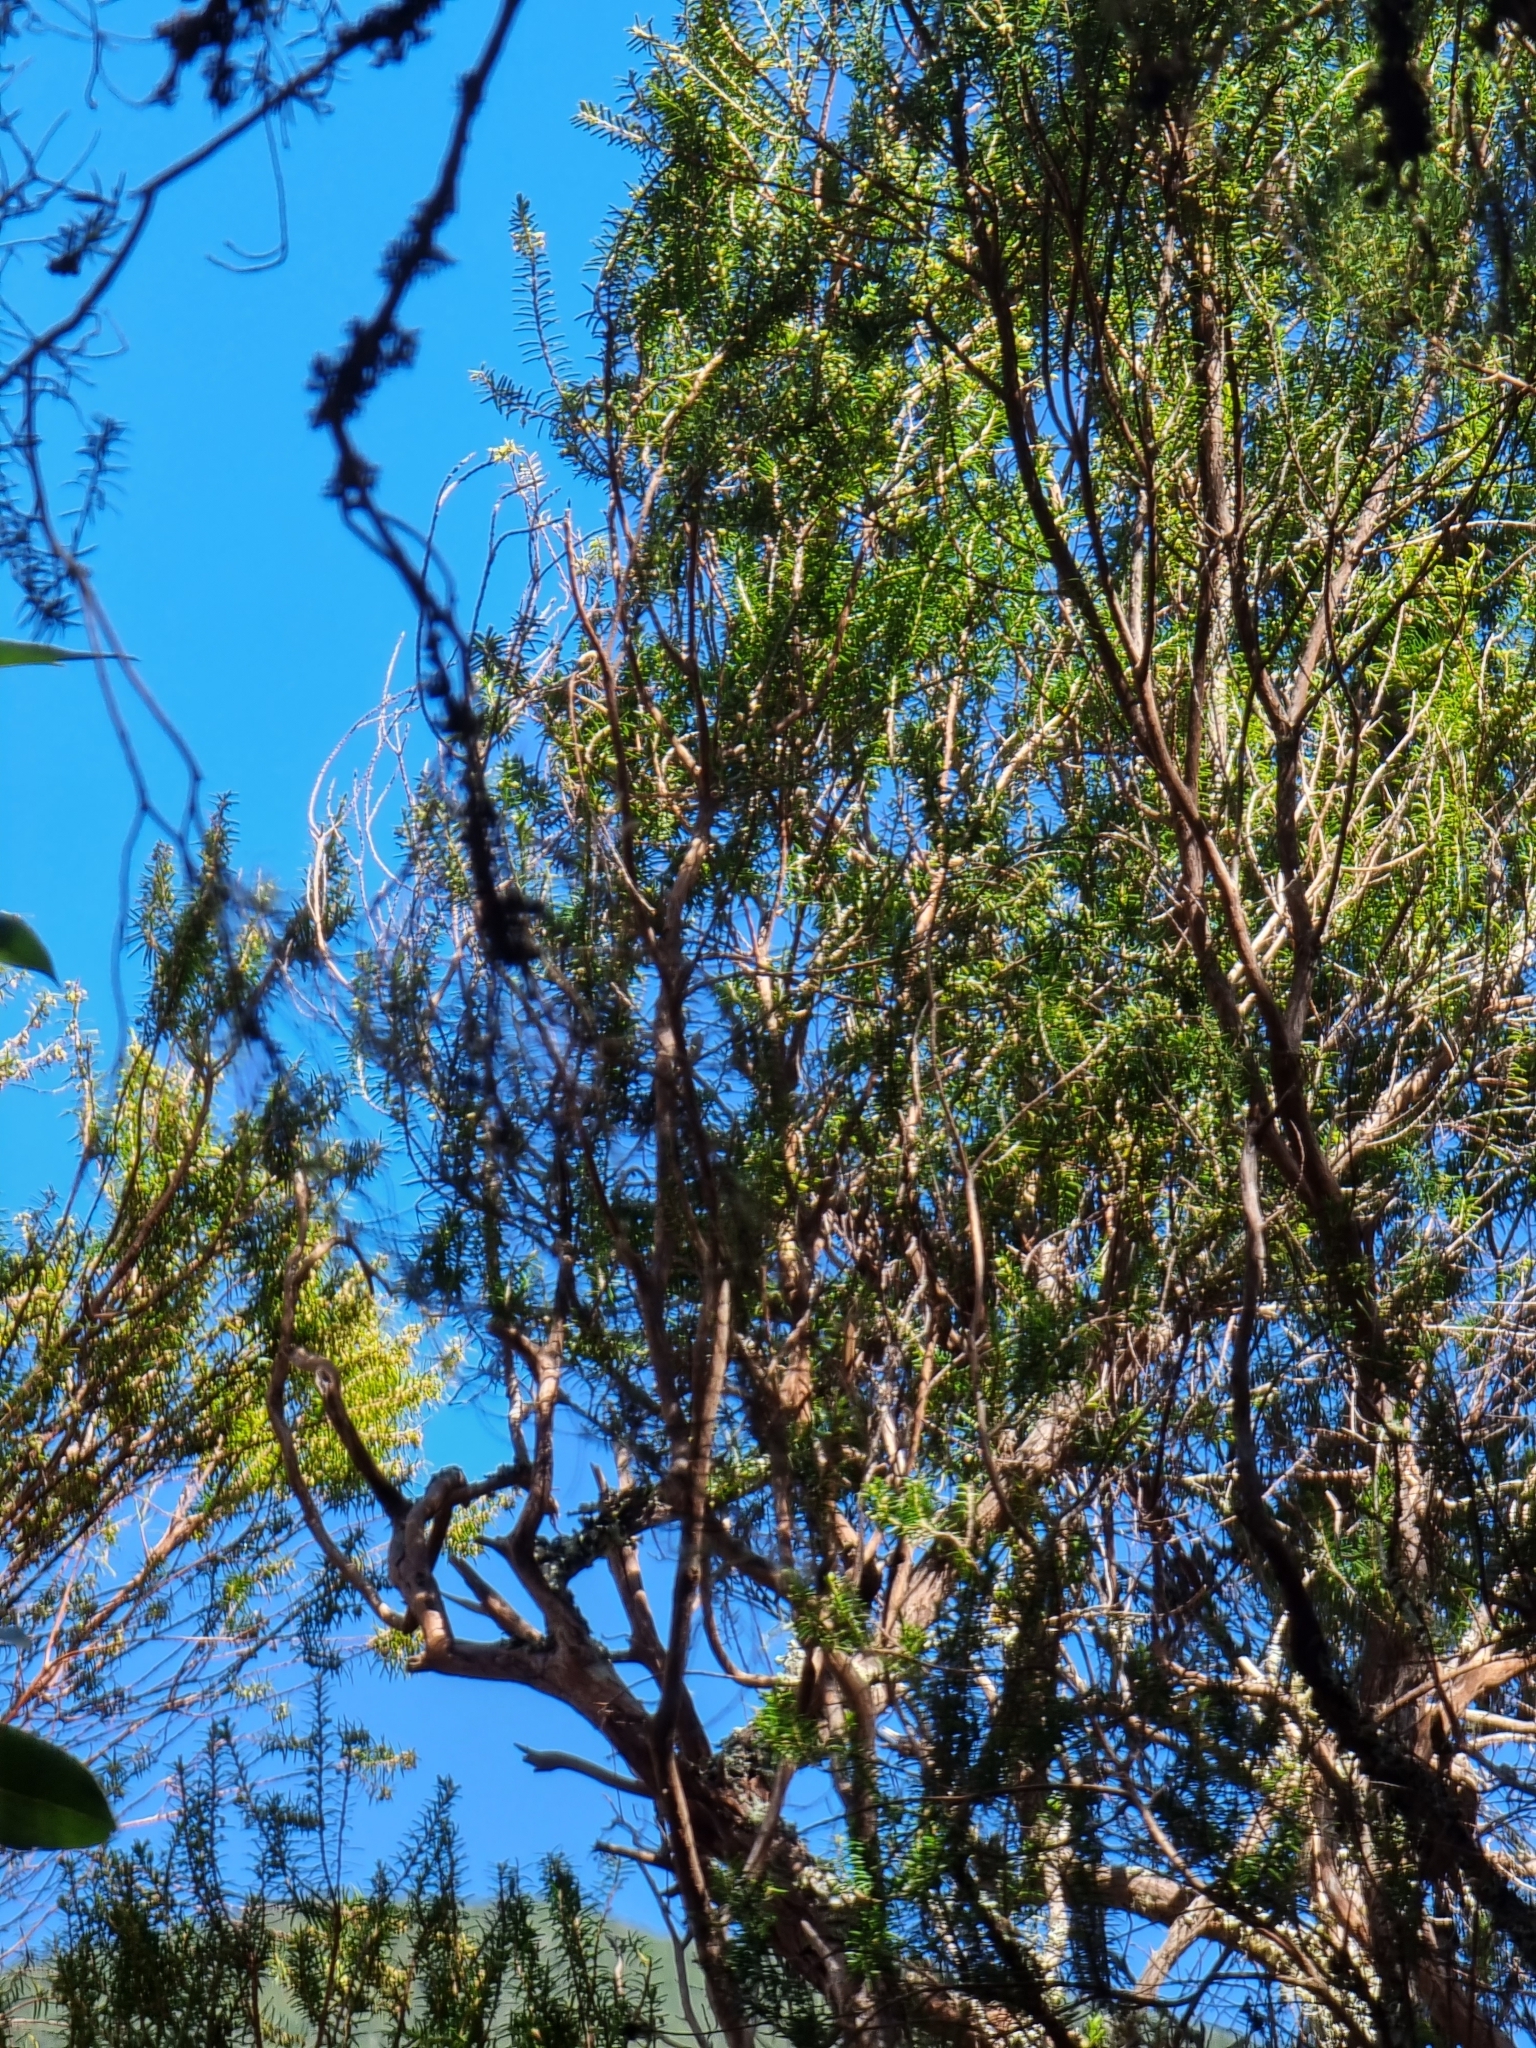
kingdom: Plantae
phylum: Tracheophyta
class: Magnoliopsida
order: Ericales
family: Ericaceae
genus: Erica
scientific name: Erica platycodon
